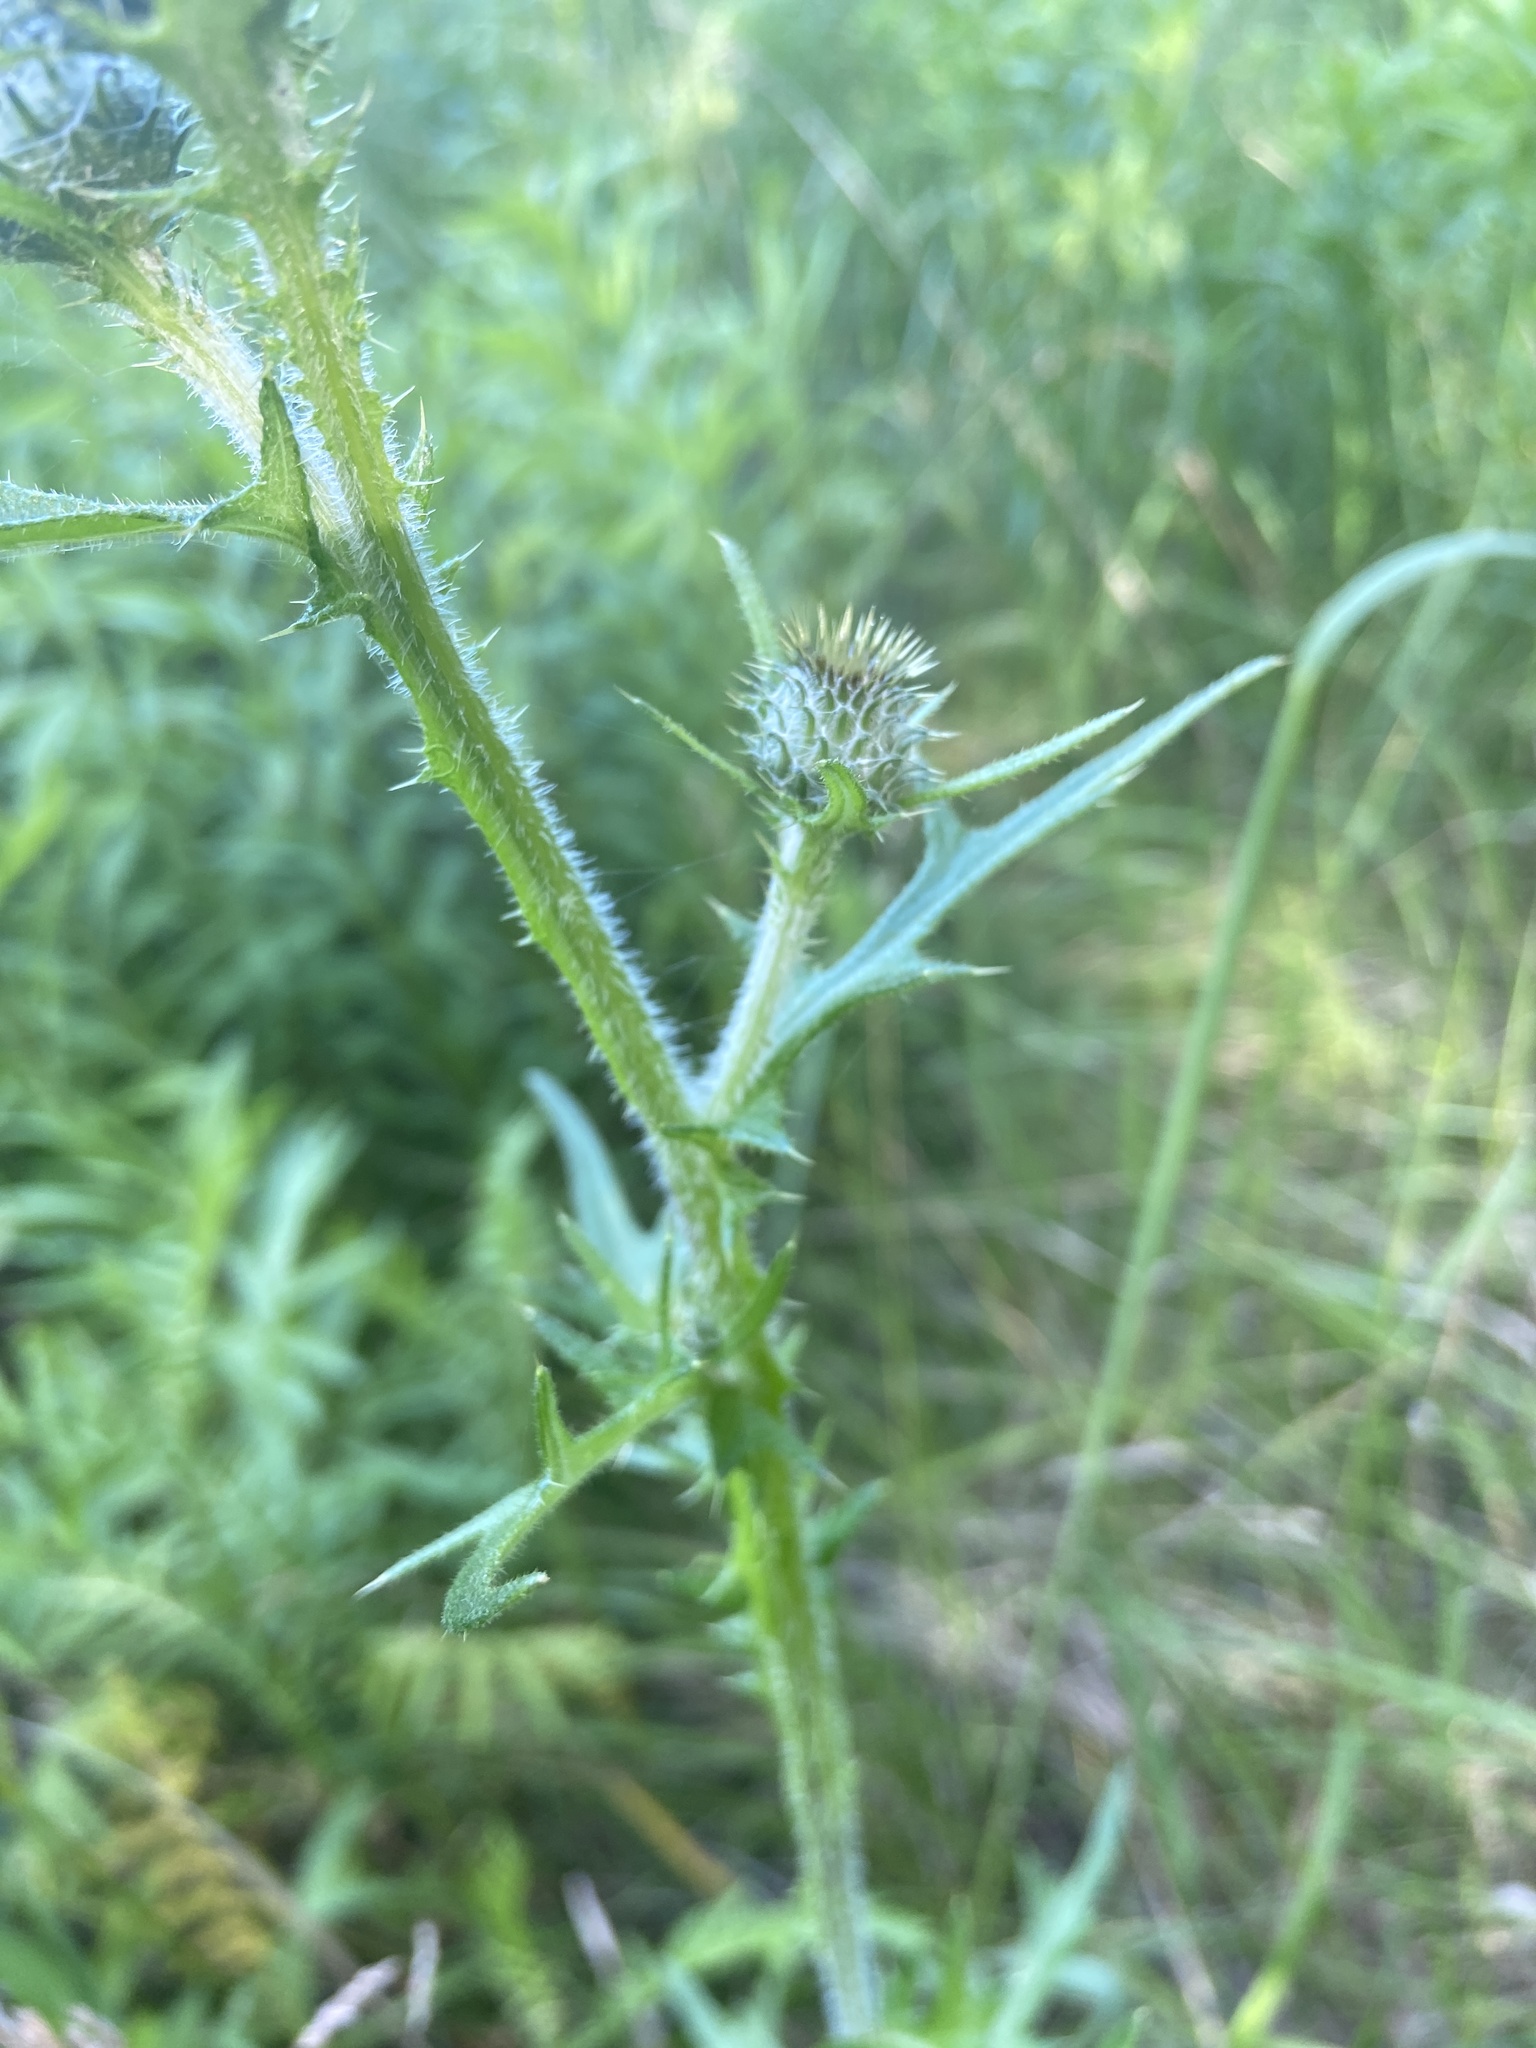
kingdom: Plantae
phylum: Tracheophyta
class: Magnoliopsida
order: Asterales
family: Asteraceae
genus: Cirsium
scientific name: Cirsium vulgare
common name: Bull thistle
